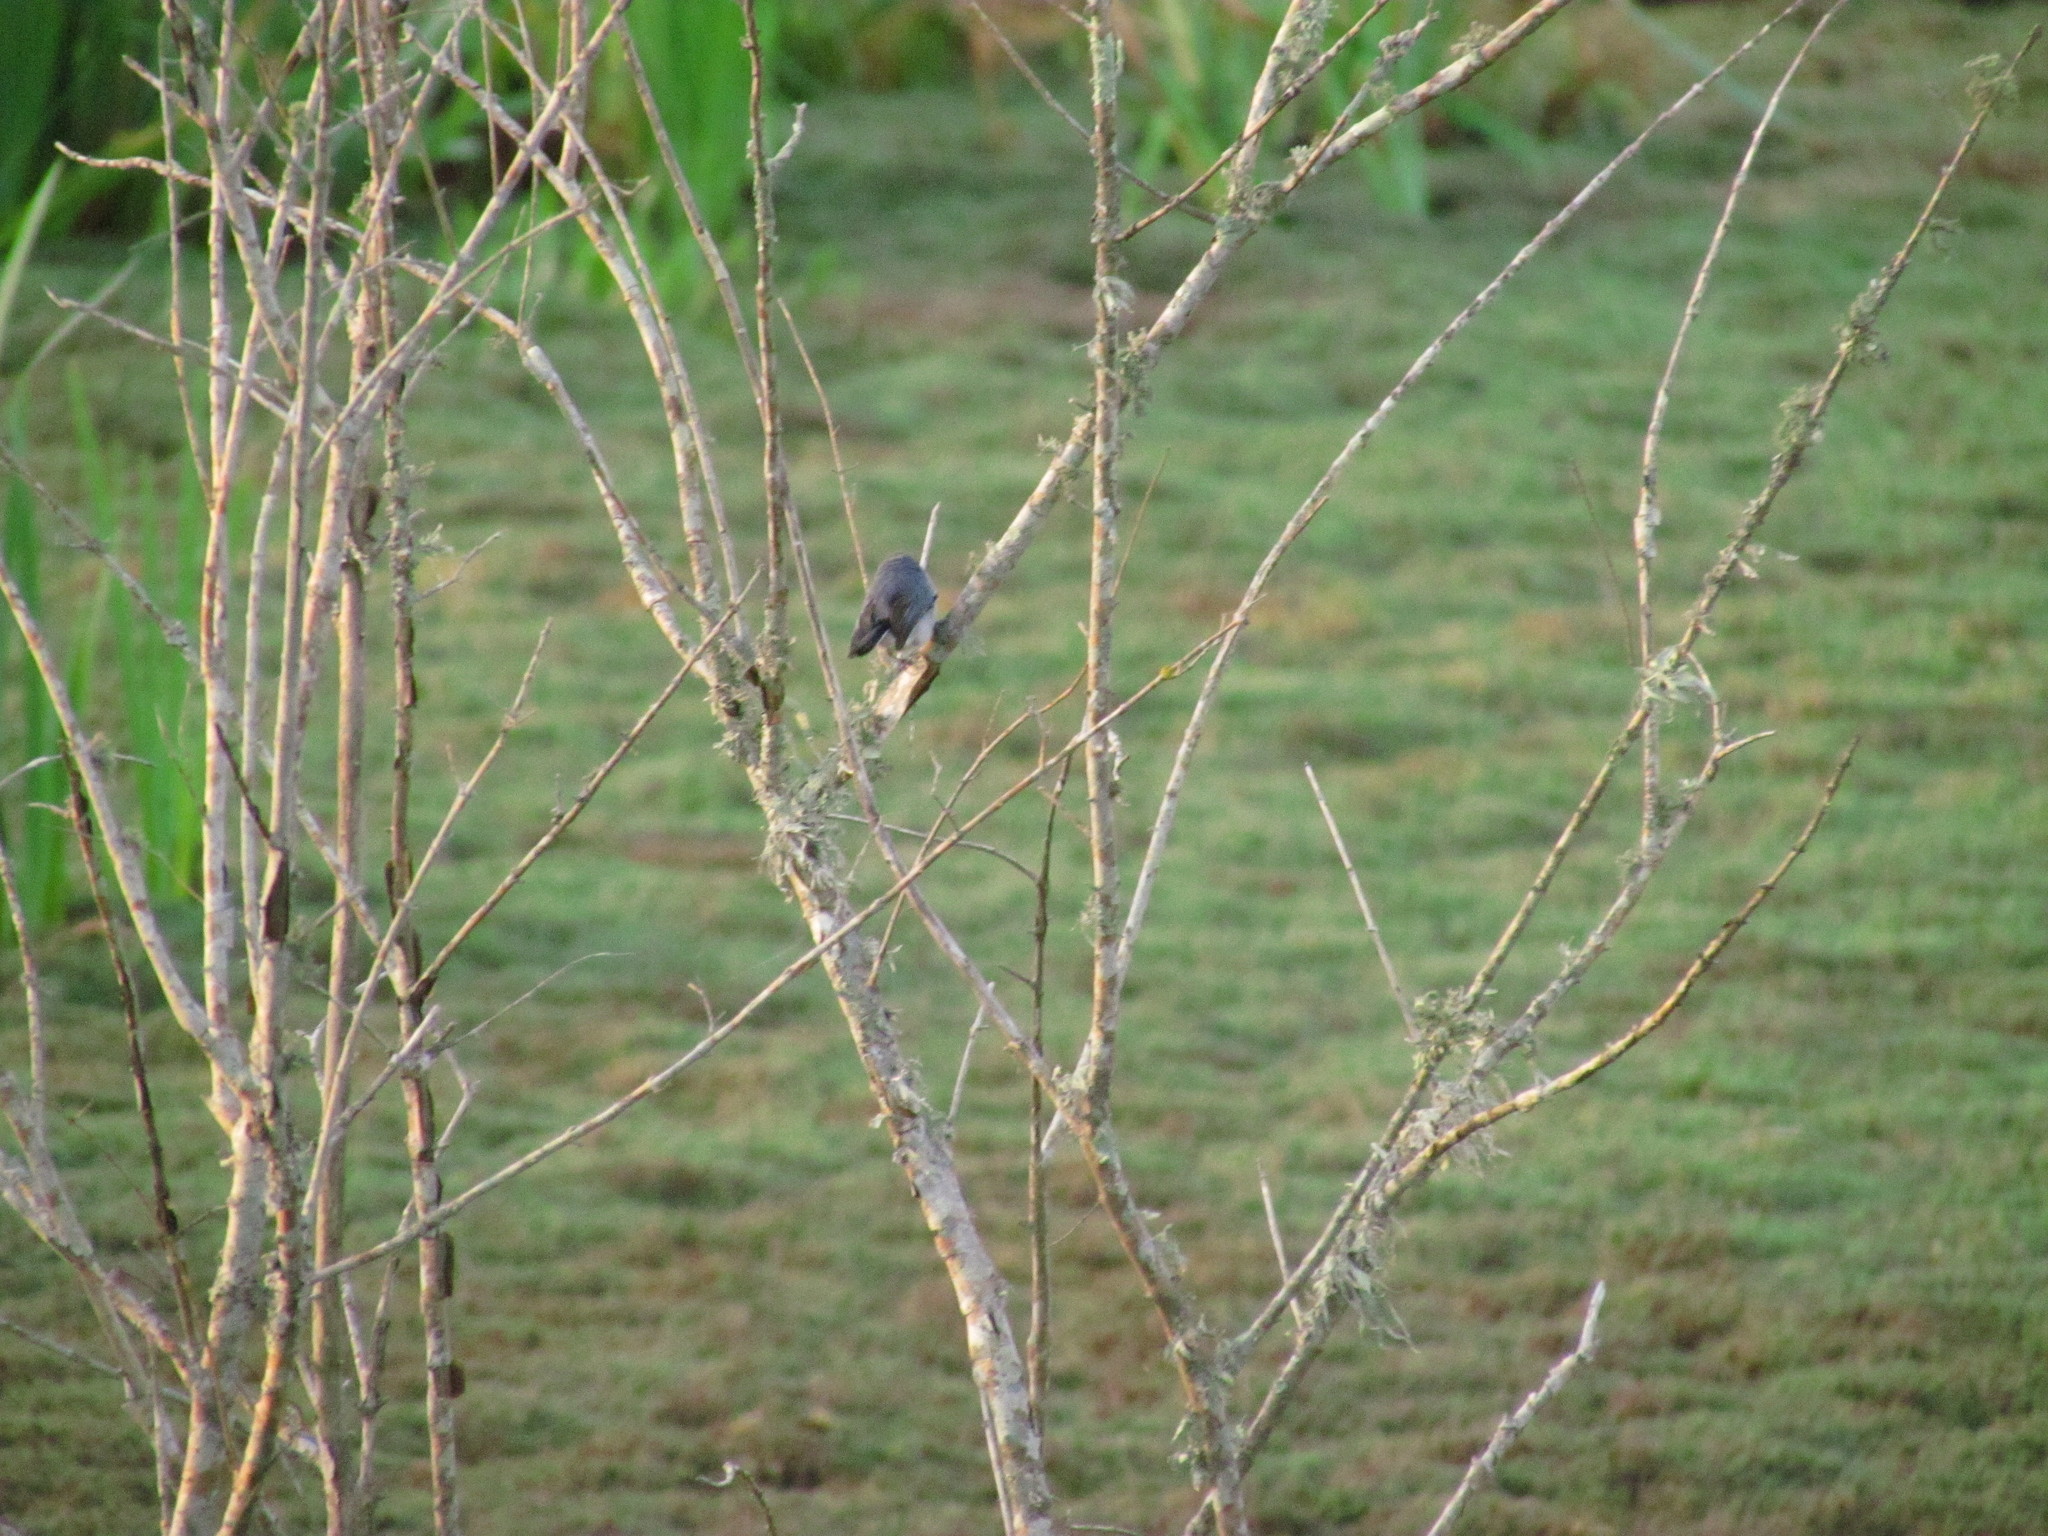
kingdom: Animalia
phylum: Chordata
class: Aves
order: Passeriformes
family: Polioptilidae
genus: Polioptila
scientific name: Polioptila dumicola
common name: Masked gnatcatcher
